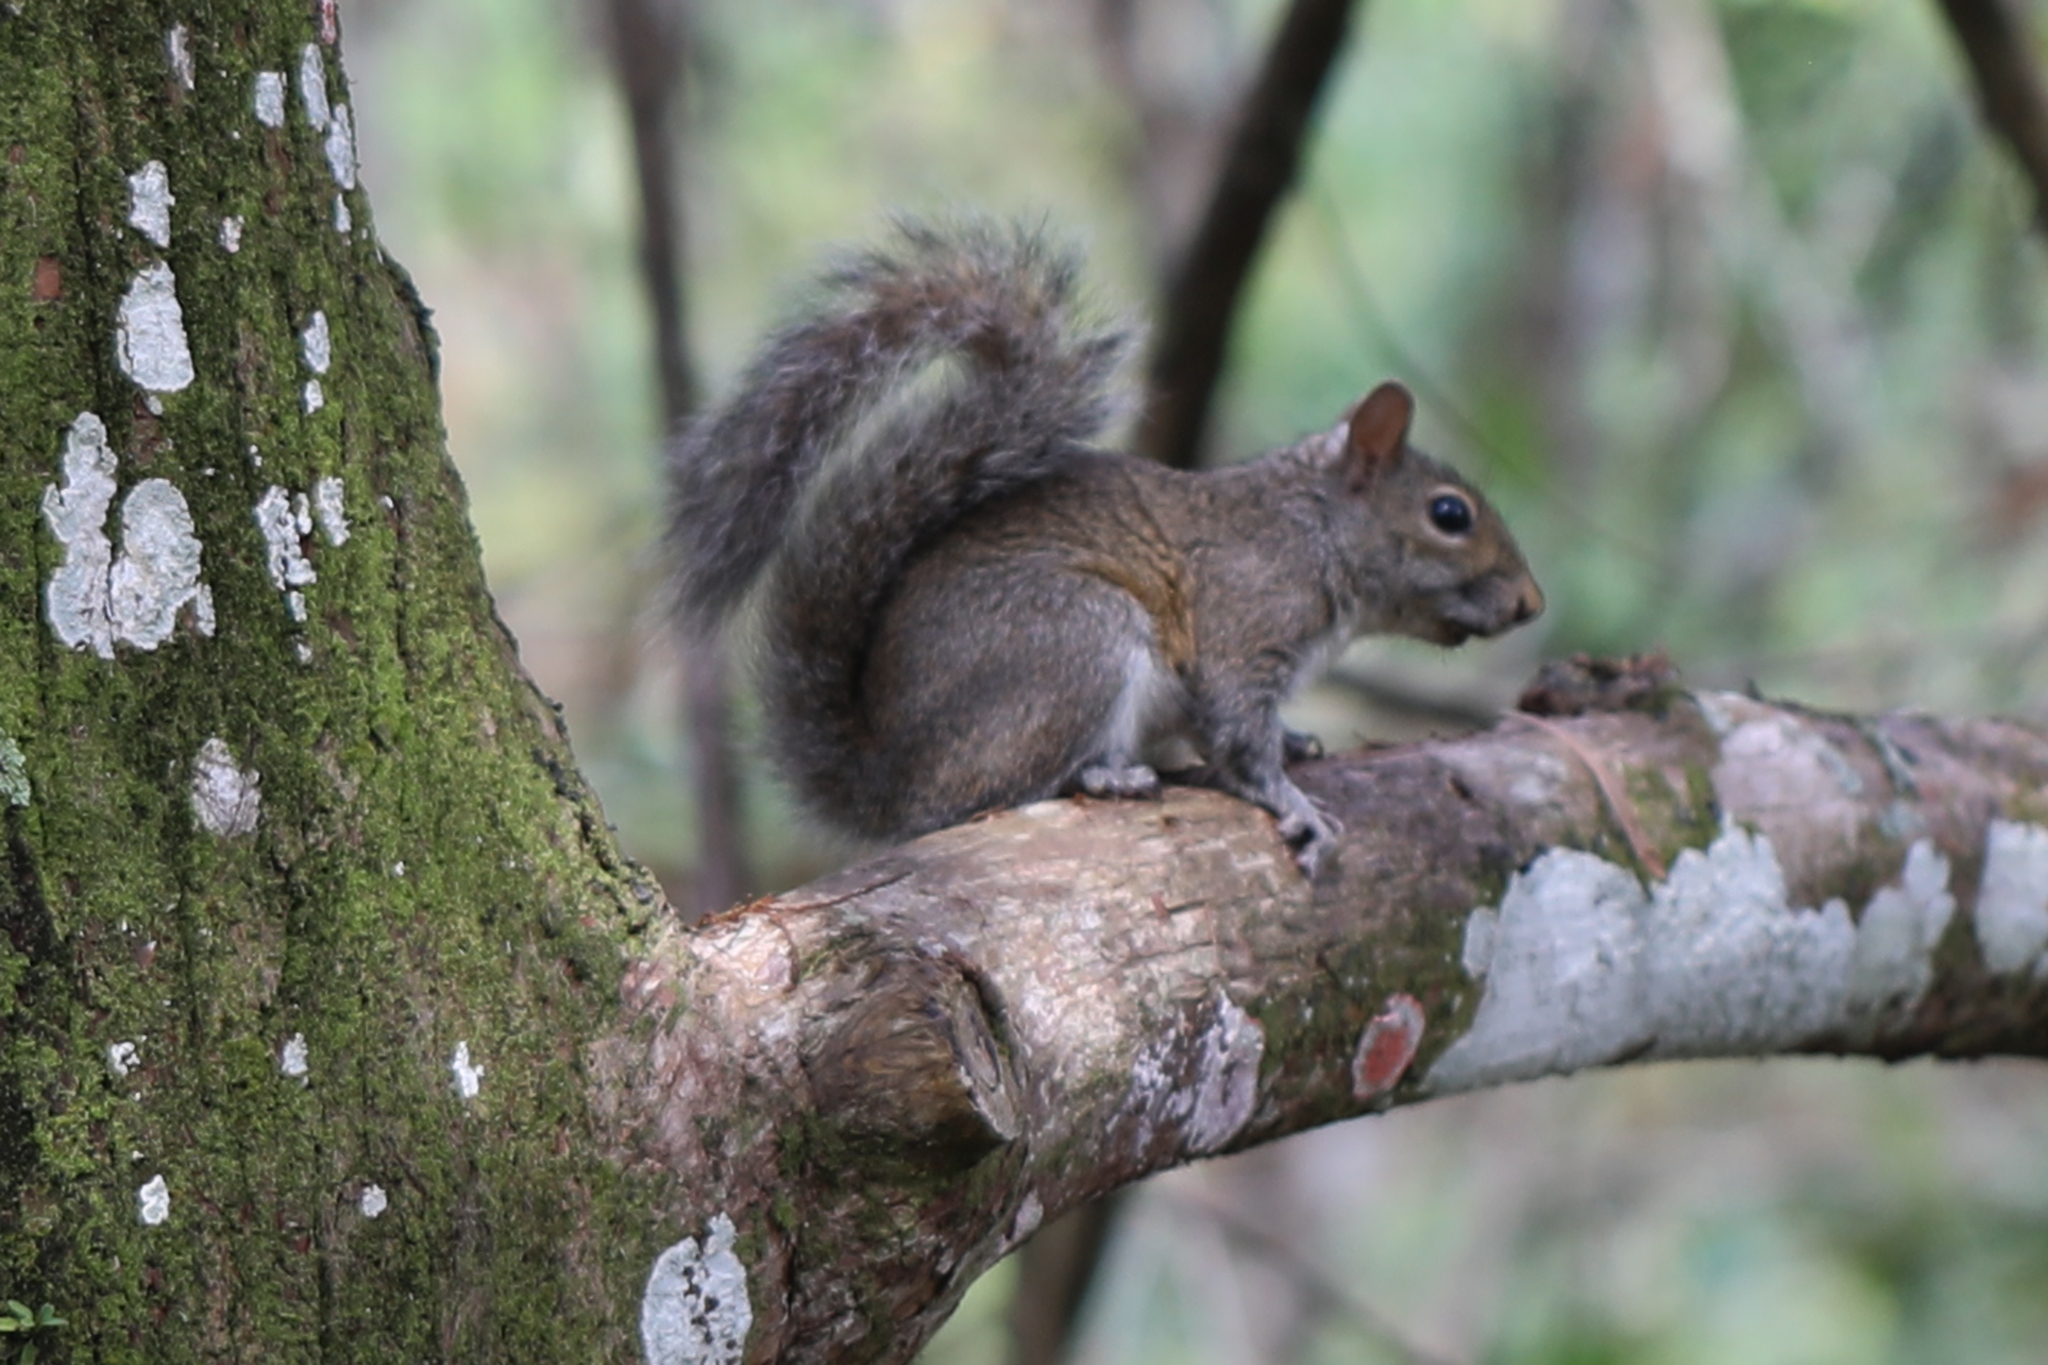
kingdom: Animalia
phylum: Chordata
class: Mammalia
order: Rodentia
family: Sciuridae
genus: Sciurus
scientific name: Sciurus carolinensis
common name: Eastern gray squirrel
